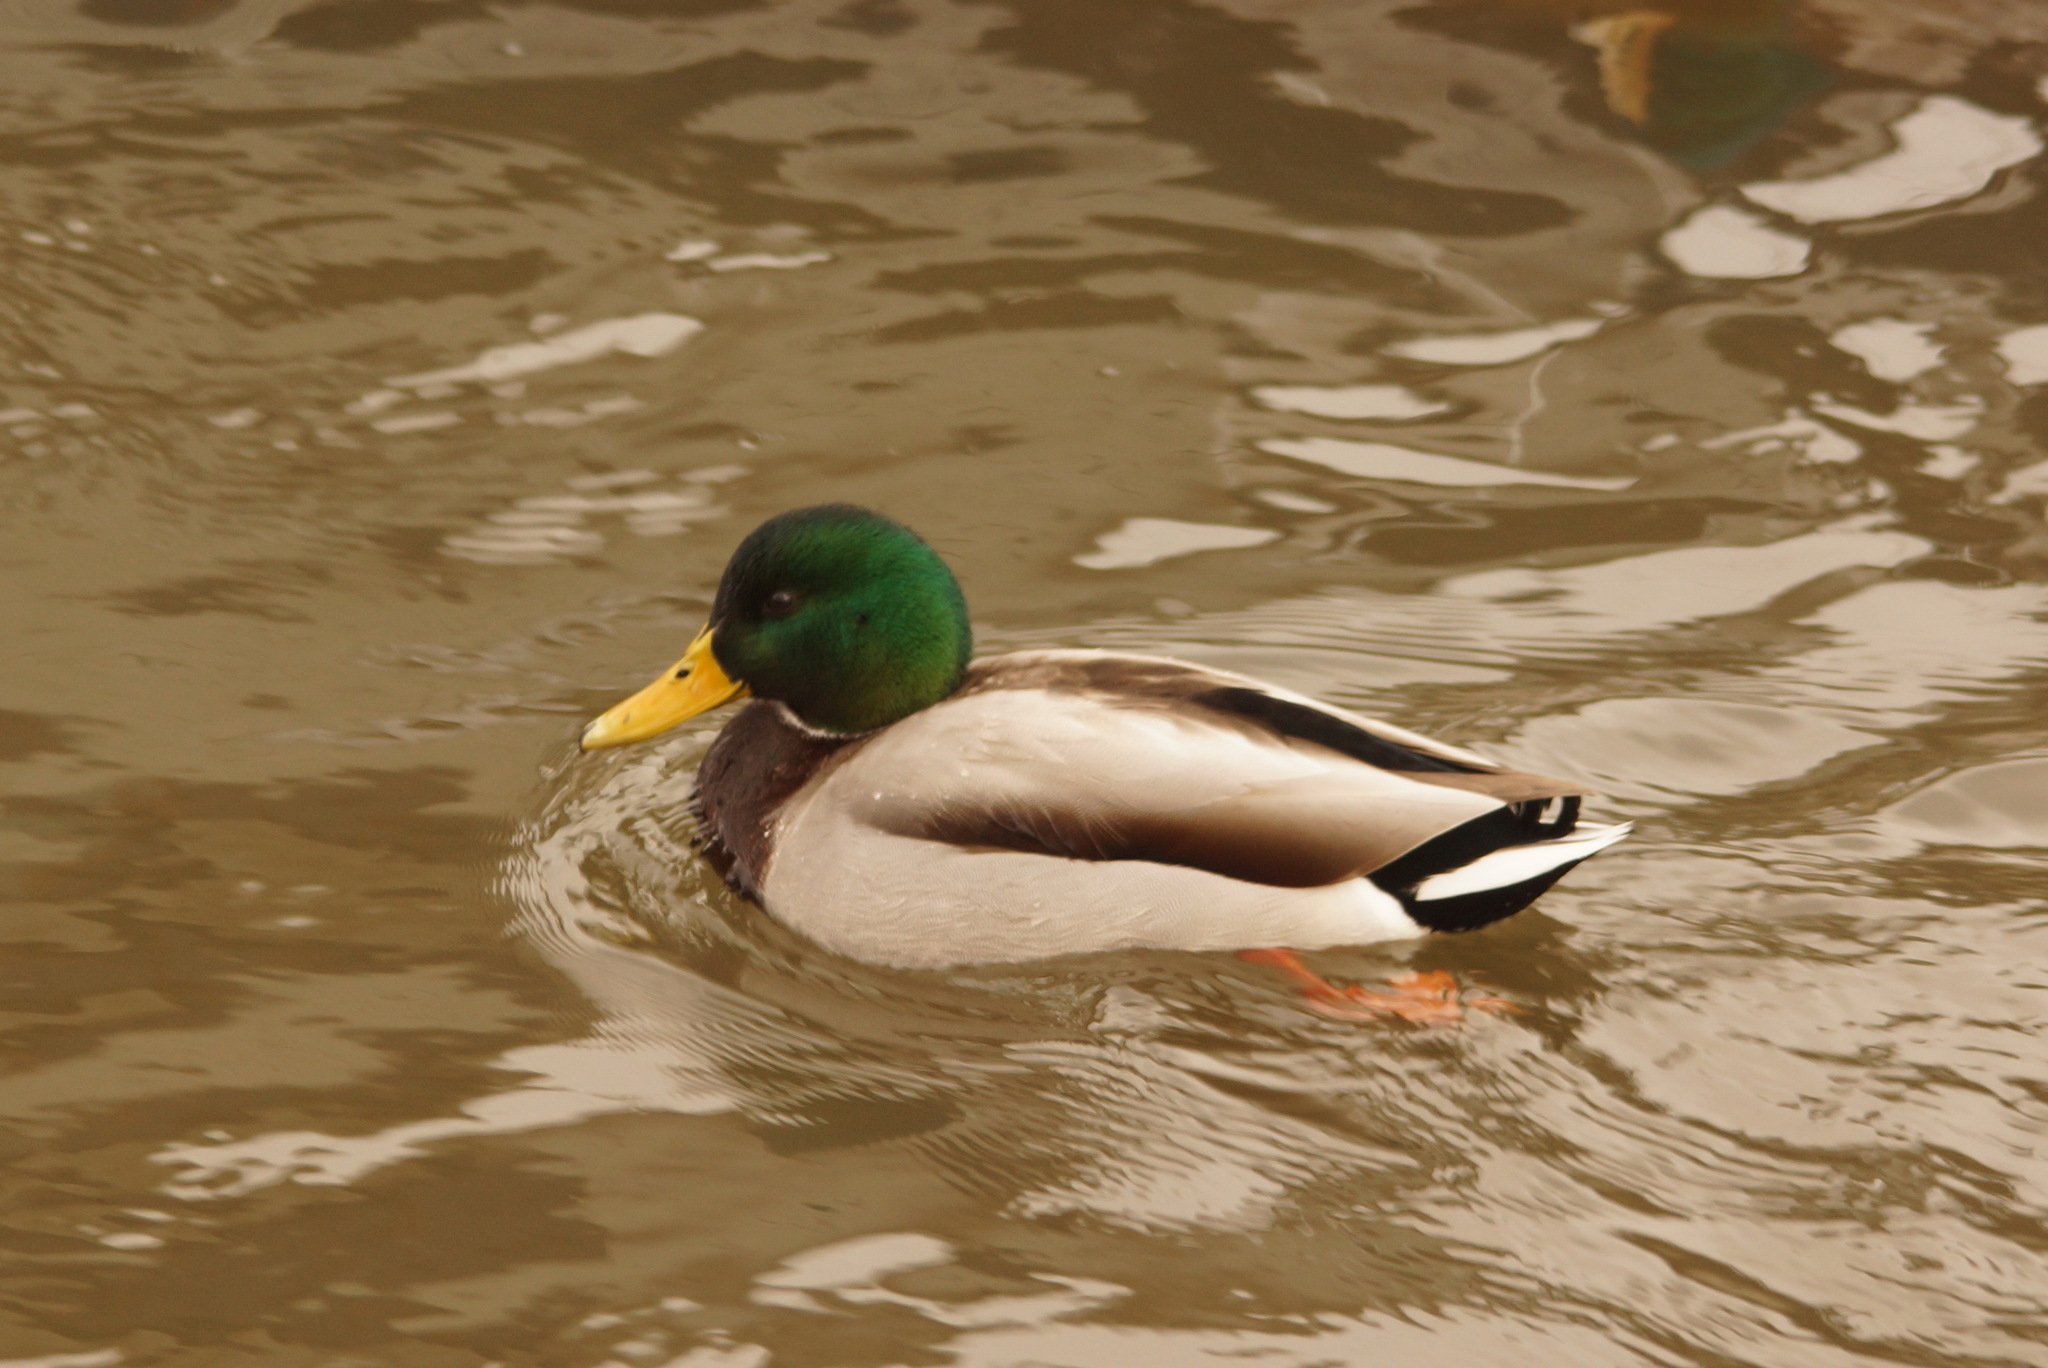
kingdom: Animalia
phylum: Chordata
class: Aves
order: Anseriformes
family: Anatidae
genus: Anas
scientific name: Anas platyrhynchos
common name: Mallard
